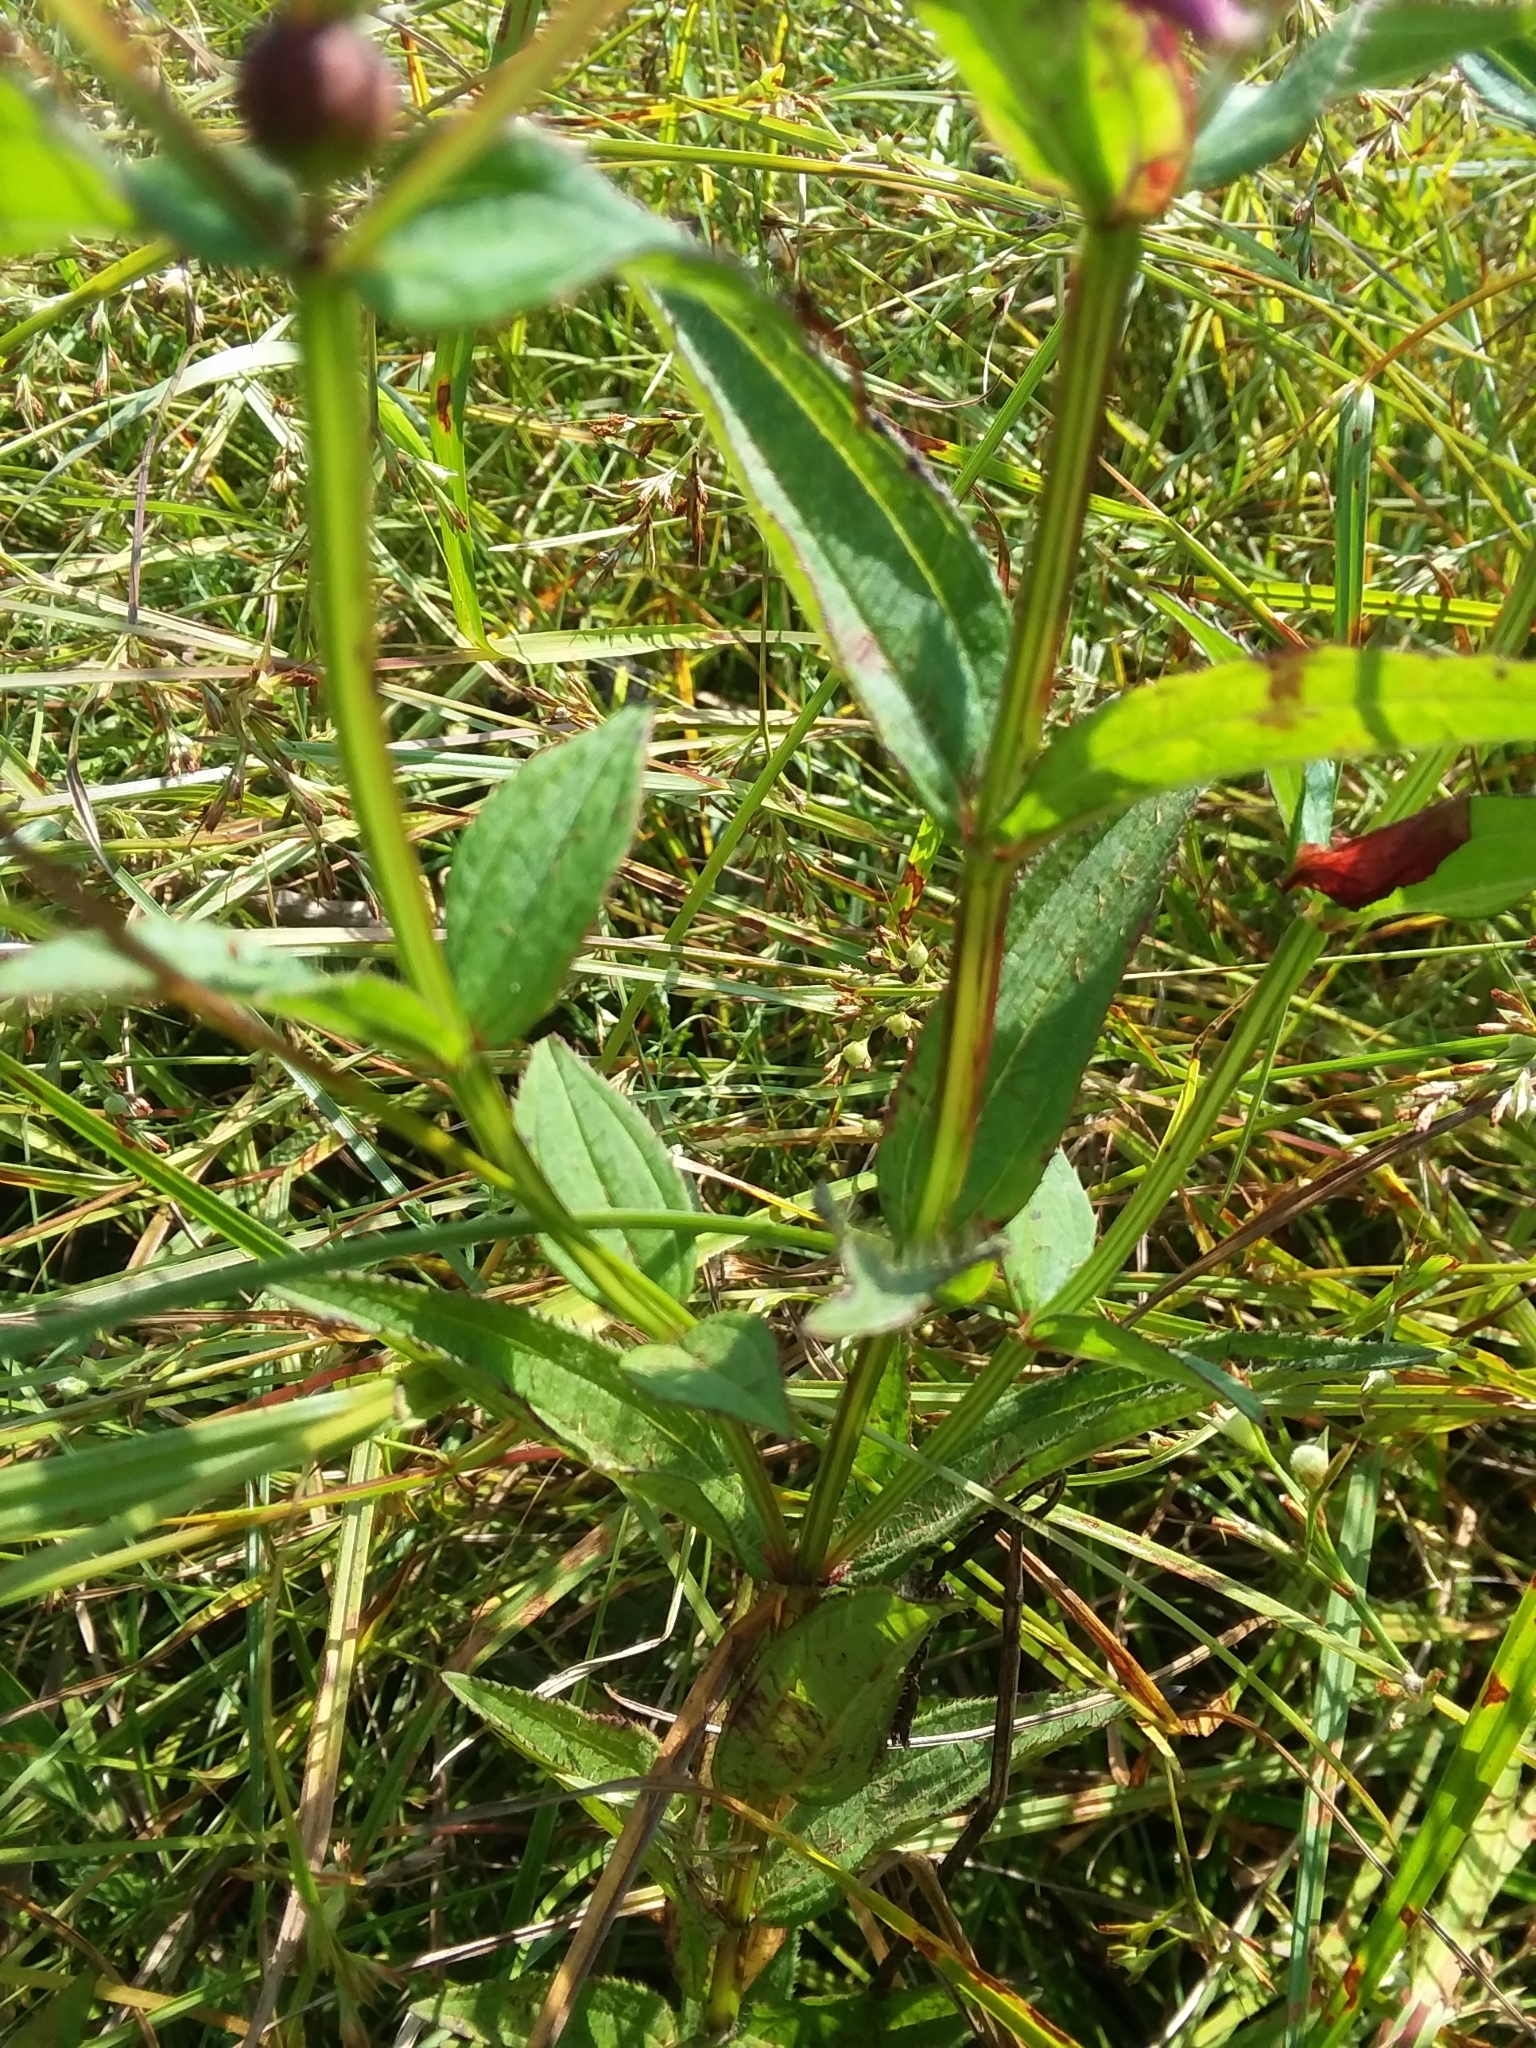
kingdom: Plantae
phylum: Tracheophyta
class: Magnoliopsida
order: Myrtales
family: Melastomataceae
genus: Rhexia
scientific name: Rhexia virginica
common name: Common meadow beauty
